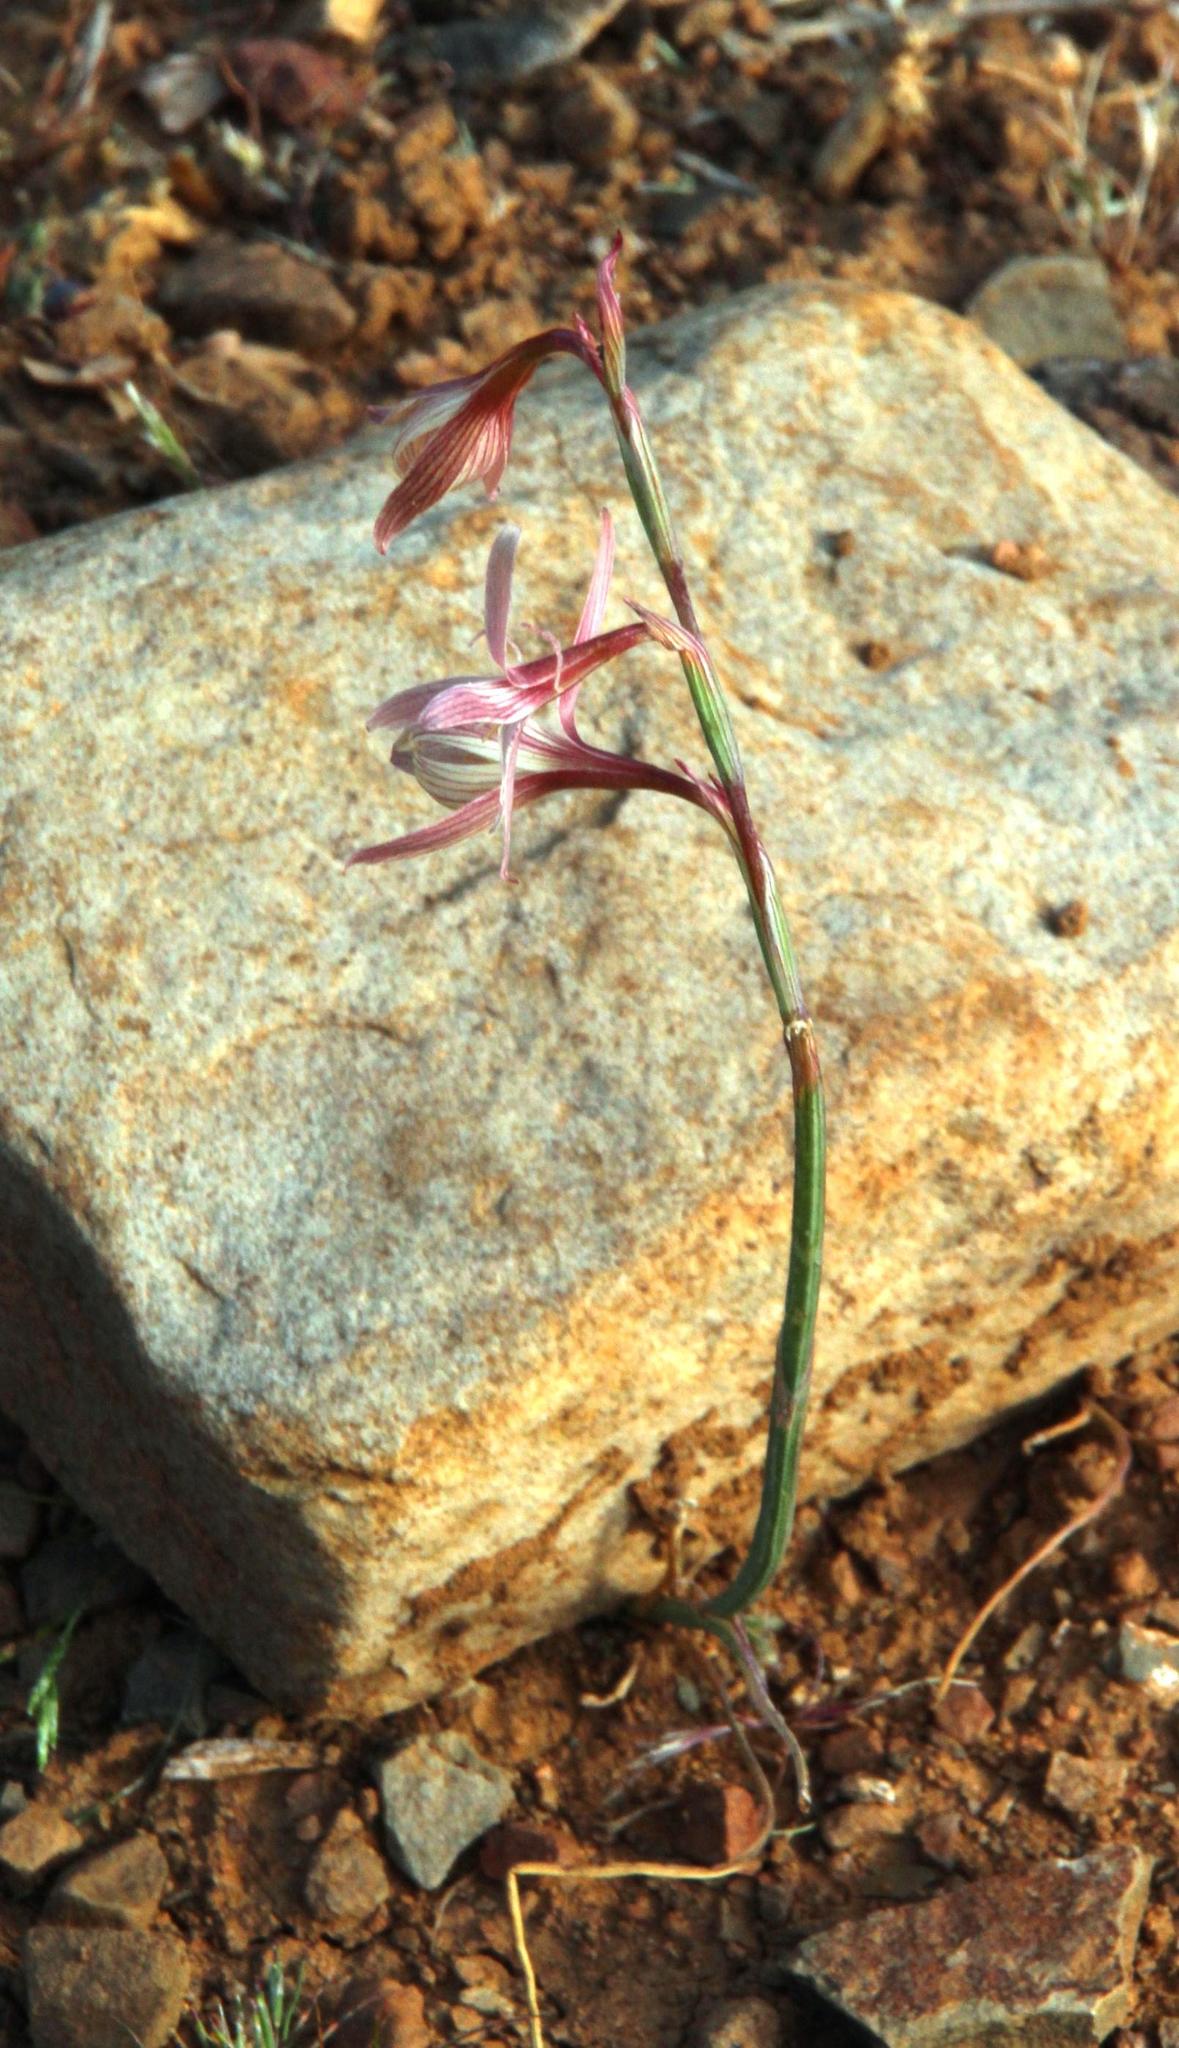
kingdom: Plantae
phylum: Tracheophyta
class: Liliopsida
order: Asparagales
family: Iridaceae
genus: Hesperantha
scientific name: Hesperantha marlothii
